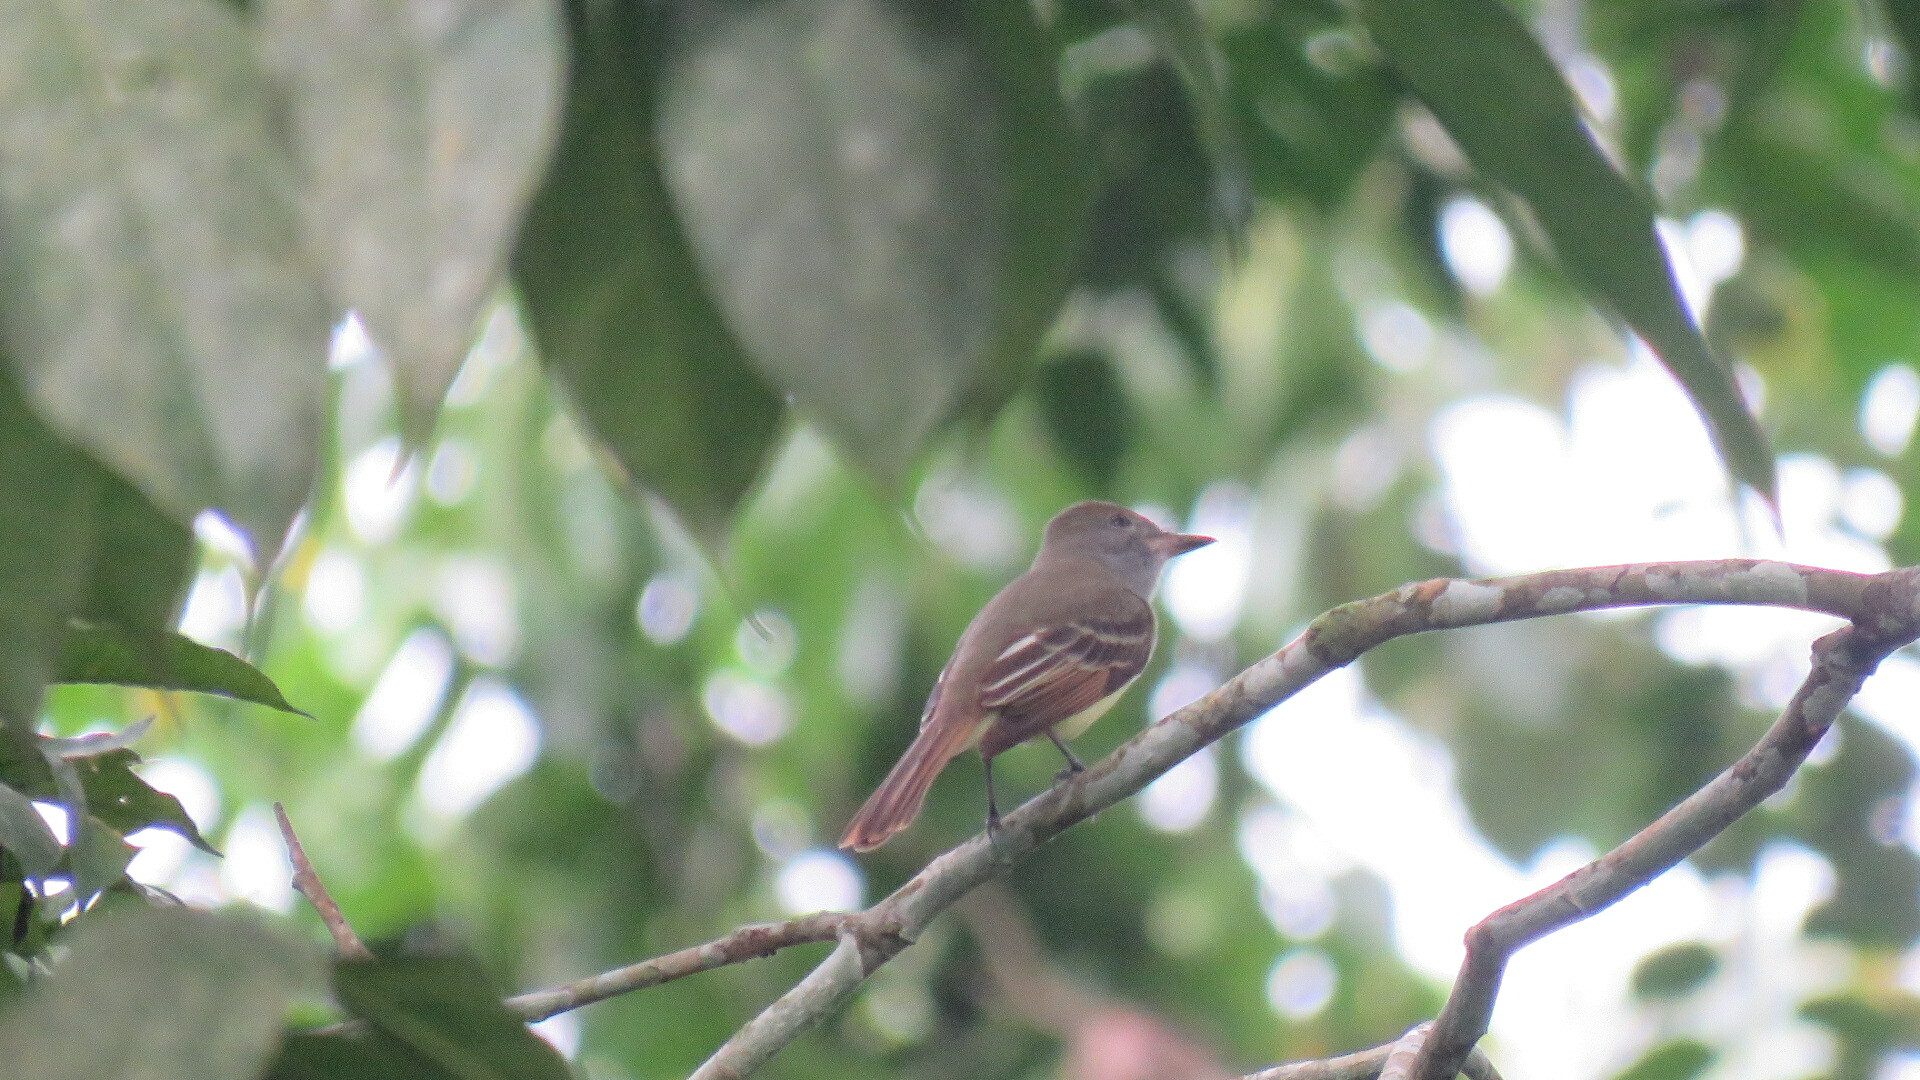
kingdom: Animalia
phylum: Chordata
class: Aves
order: Passeriformes
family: Tyrannidae
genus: Myiarchus
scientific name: Myiarchus crinitus
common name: Great crested flycatcher
